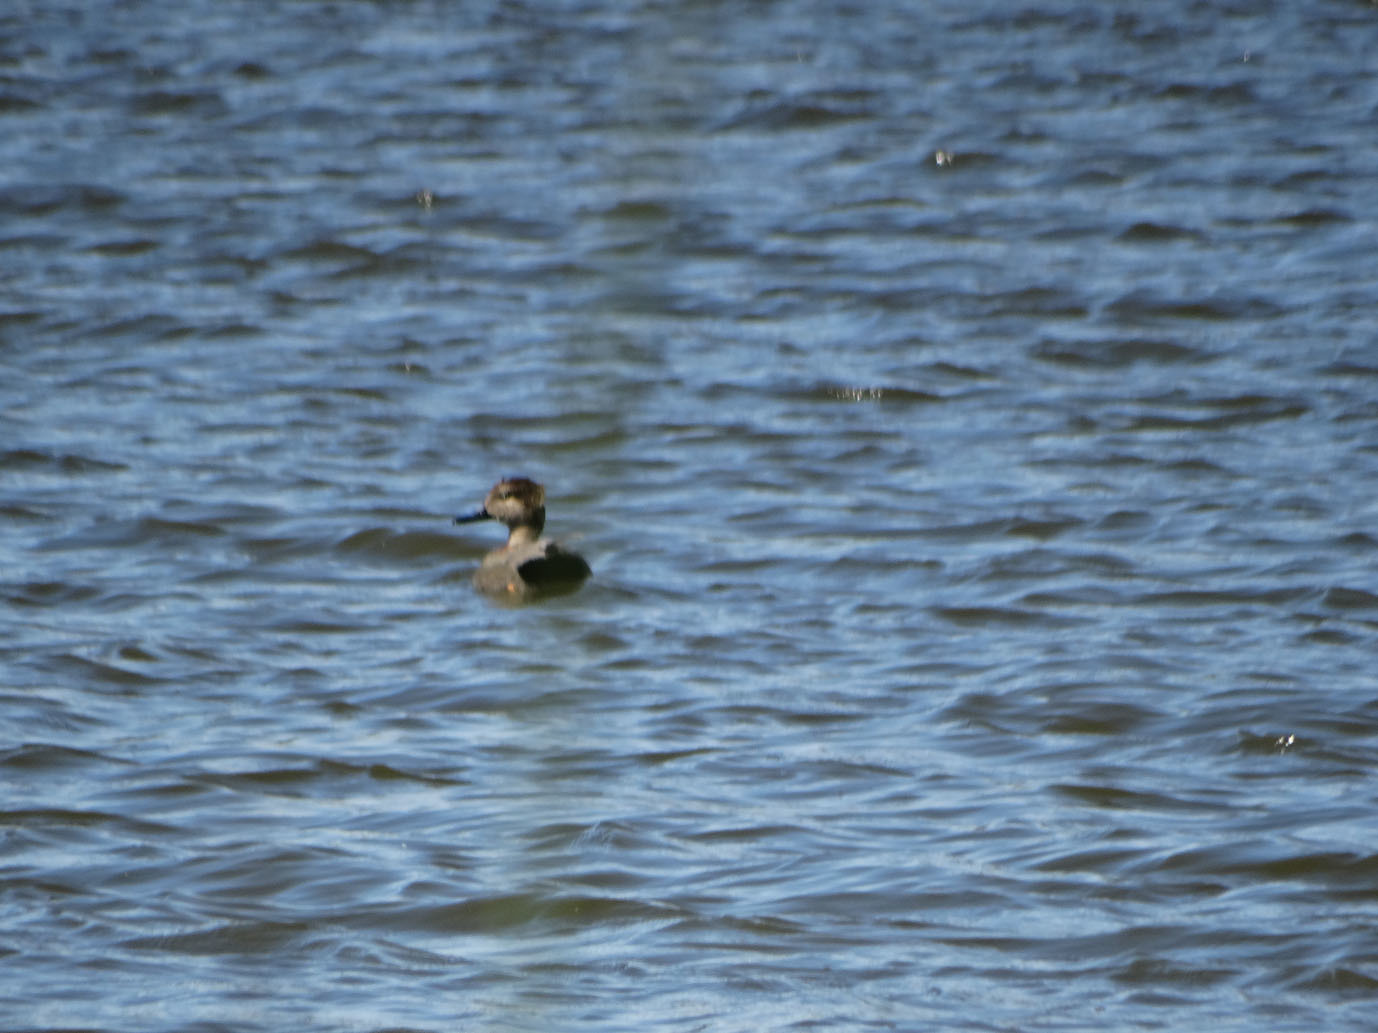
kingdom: Animalia
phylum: Chordata
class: Aves
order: Anseriformes
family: Anatidae
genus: Mareca
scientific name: Mareca strepera
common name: Gadwall
